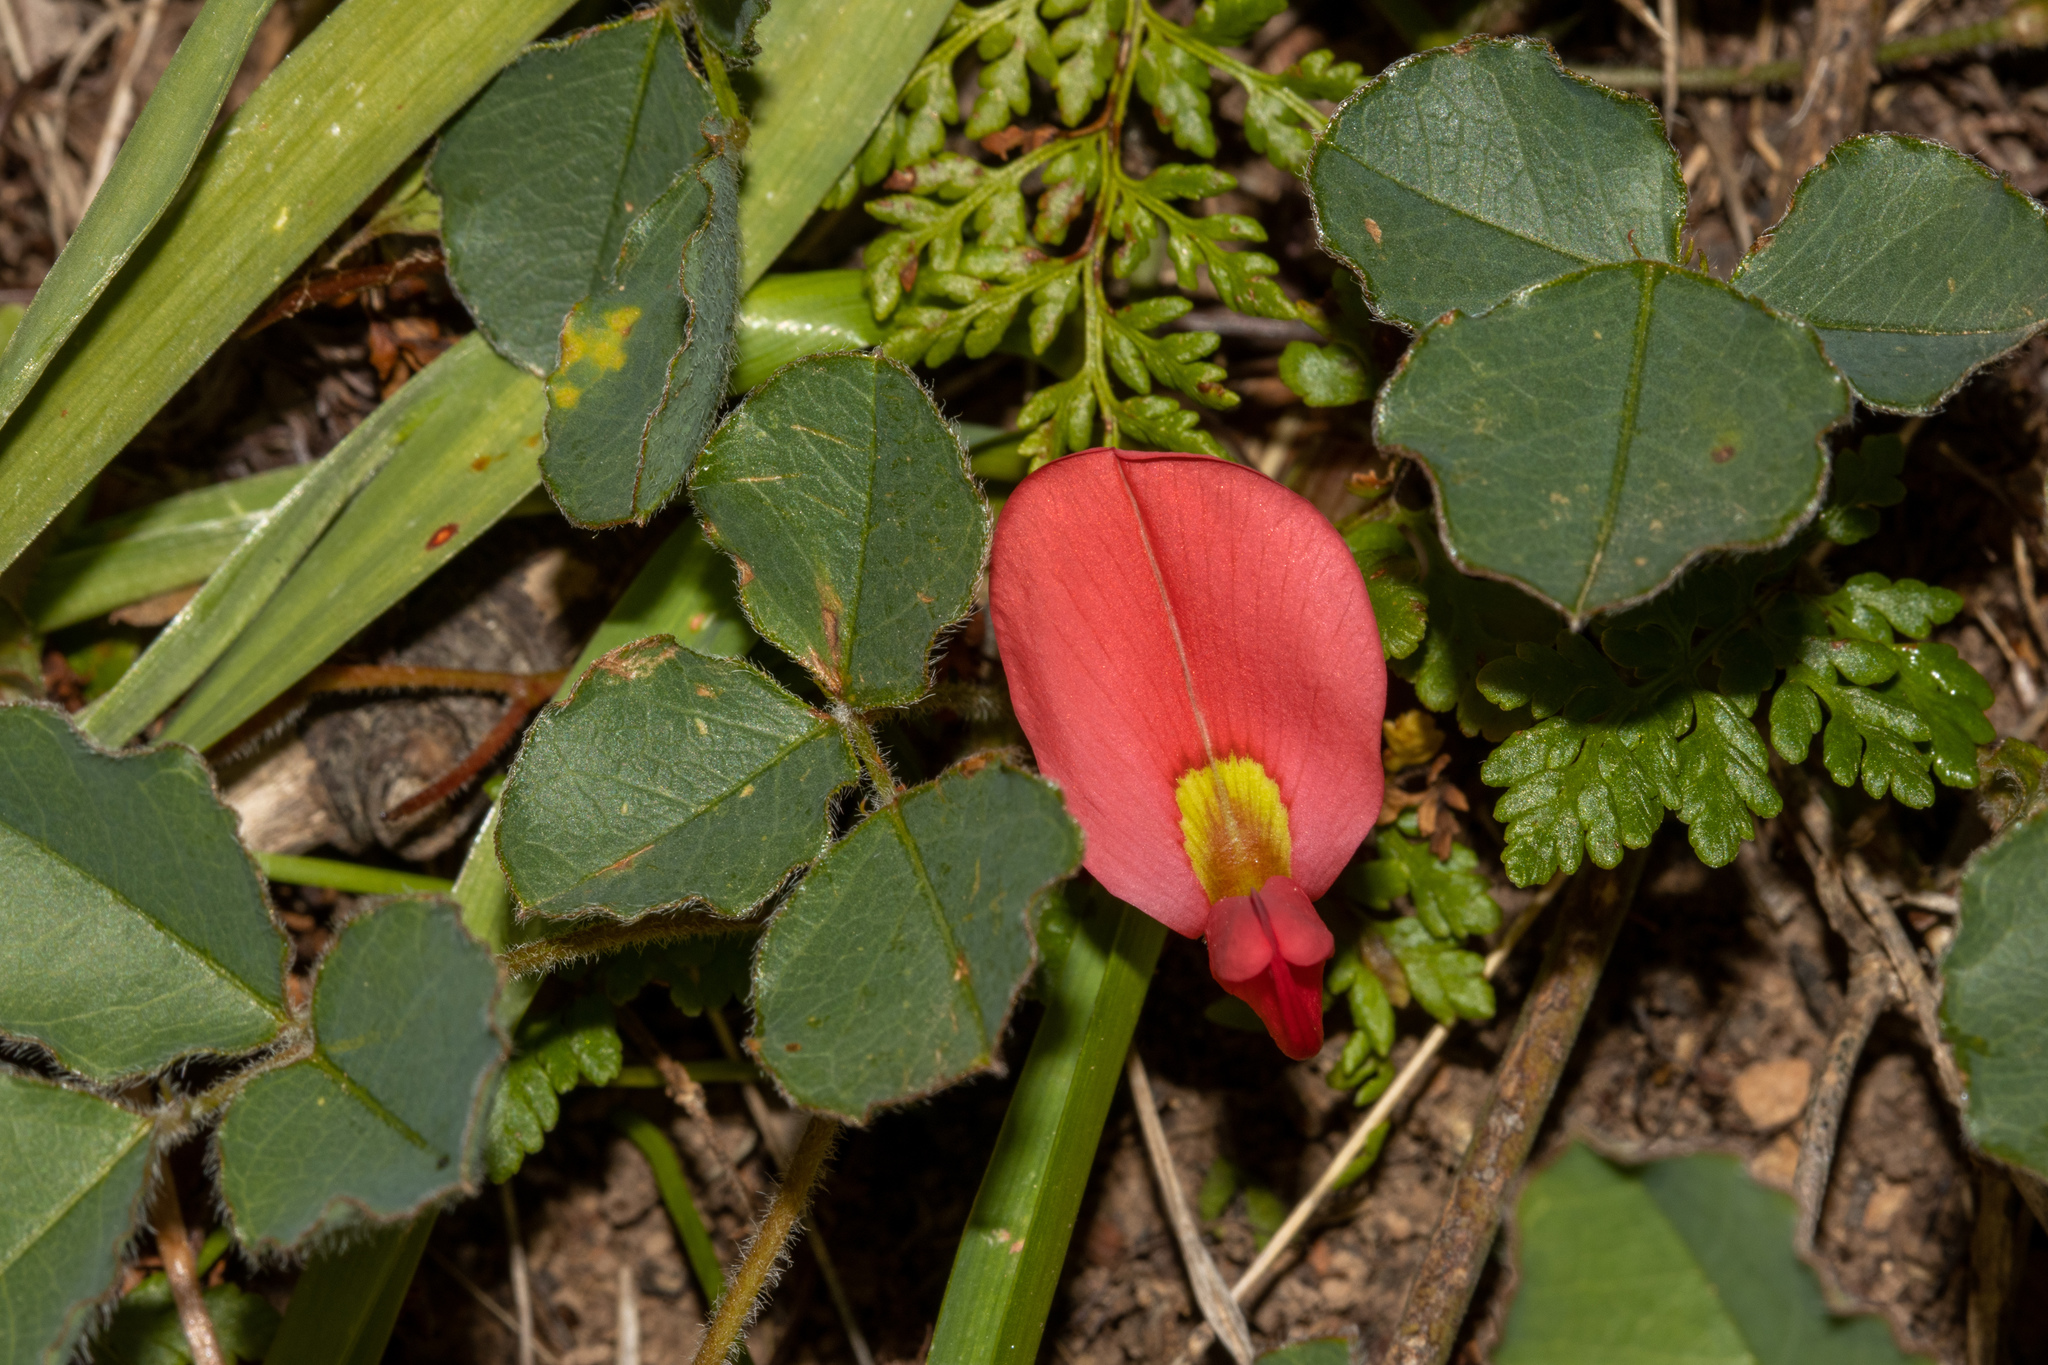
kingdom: Plantae
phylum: Tracheophyta
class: Magnoliopsida
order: Fabales
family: Fabaceae
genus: Kennedia
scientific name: Kennedia prostrata
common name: Running-postman
